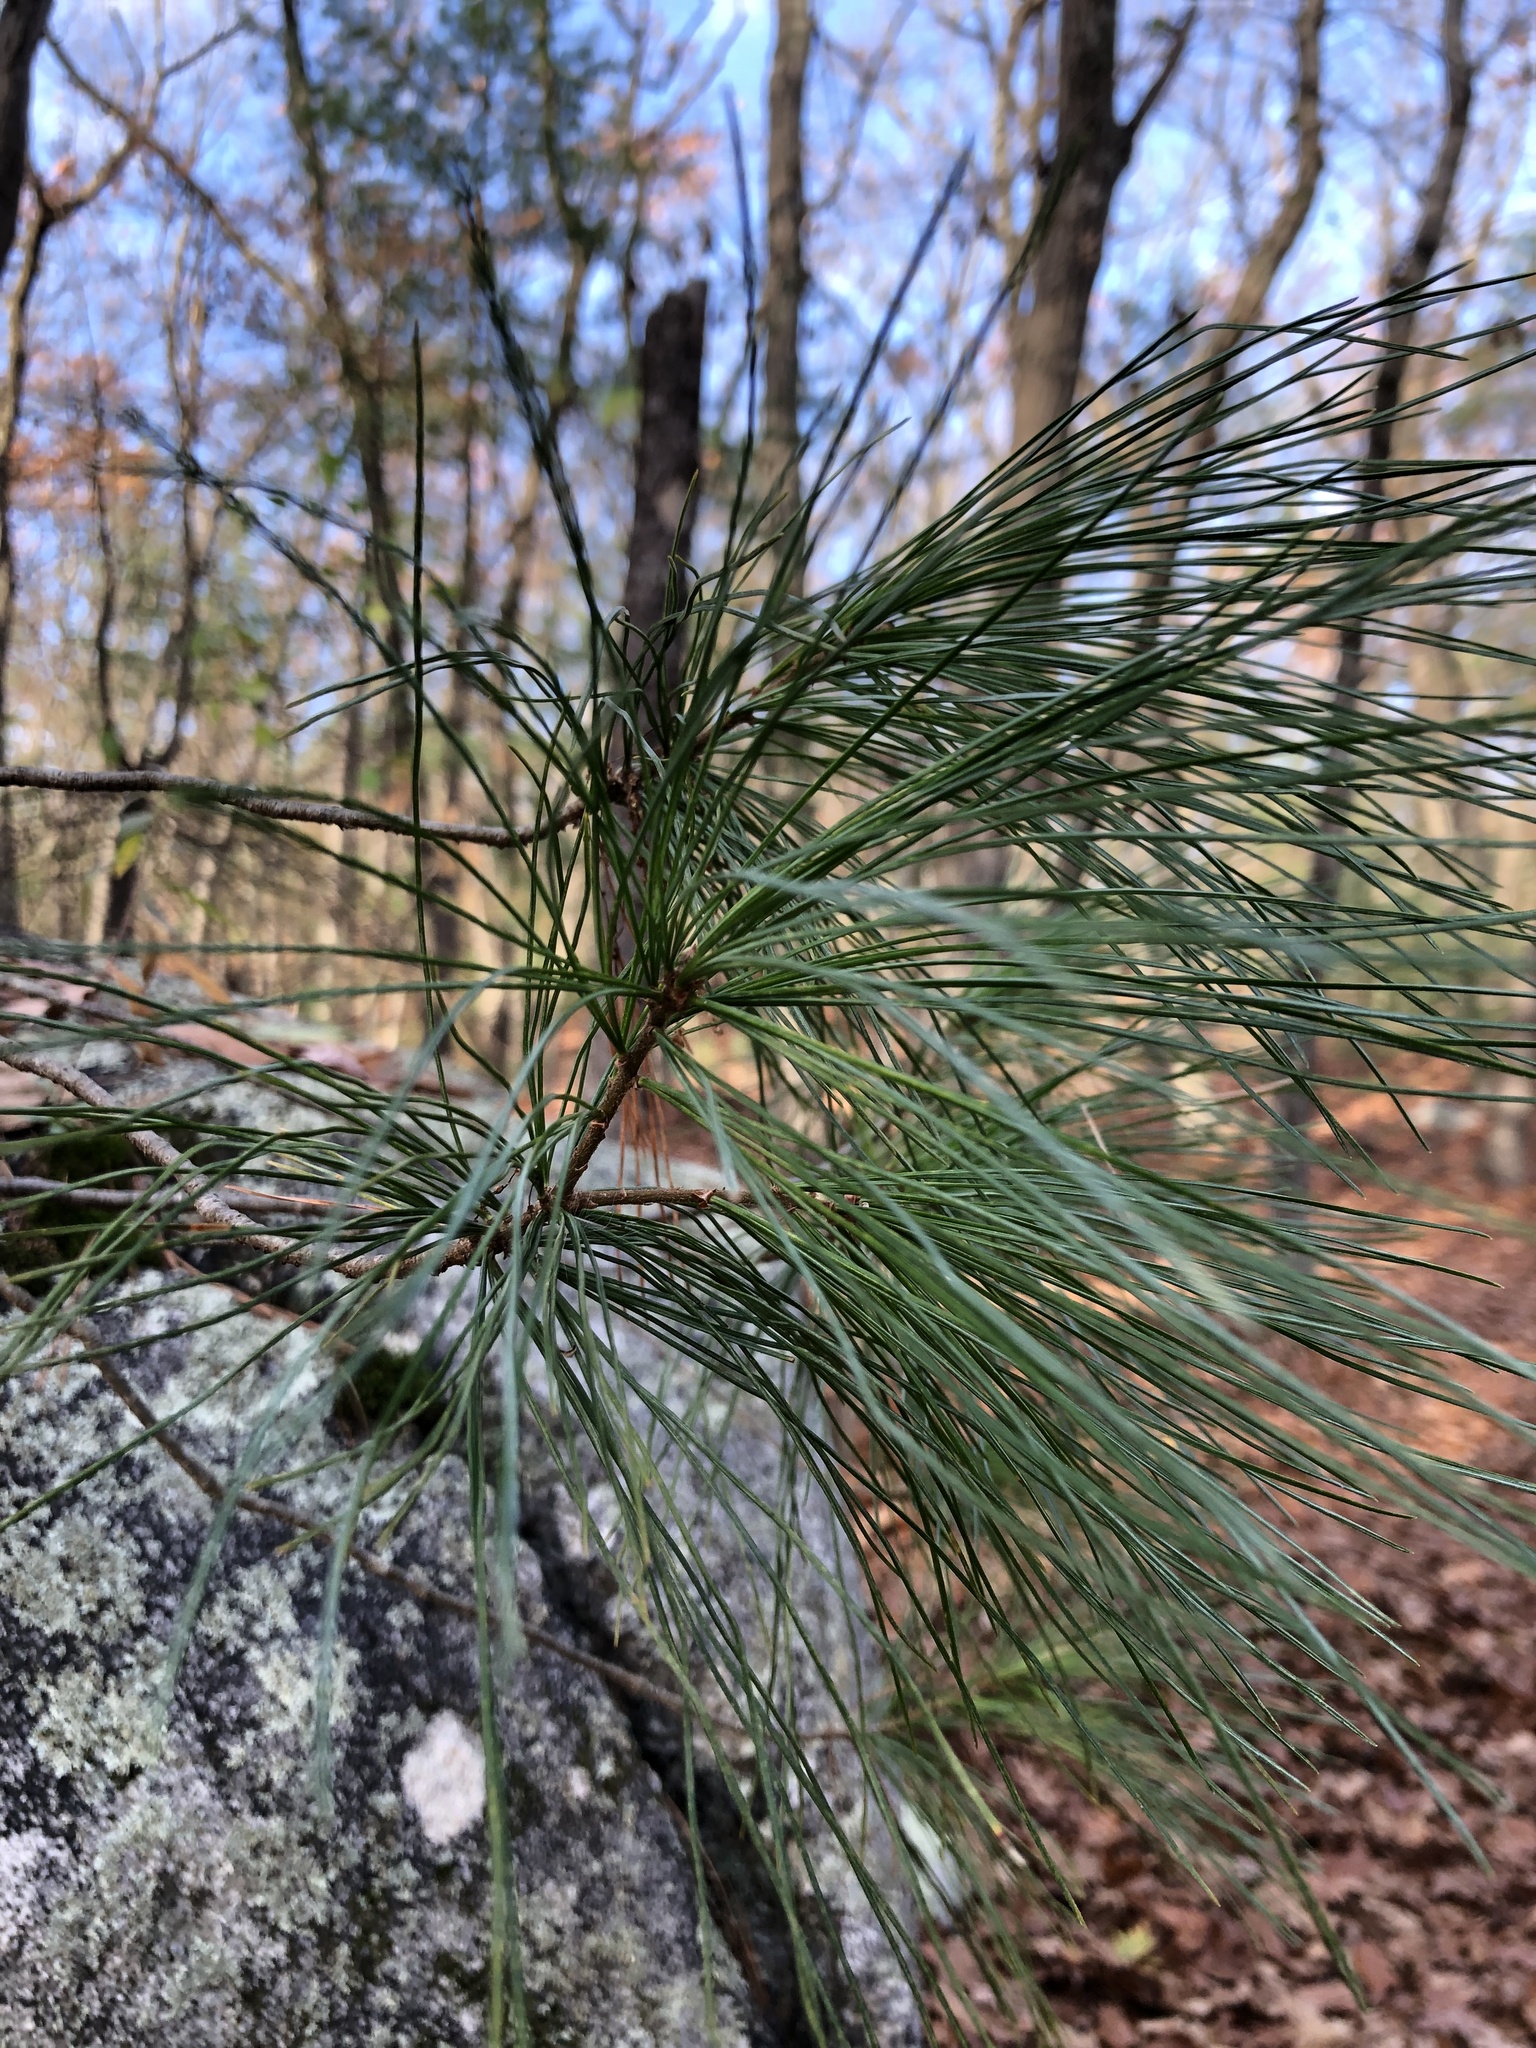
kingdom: Plantae
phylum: Tracheophyta
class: Pinopsida
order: Pinales
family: Pinaceae
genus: Pinus
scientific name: Pinus strobus
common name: Weymouth pine
